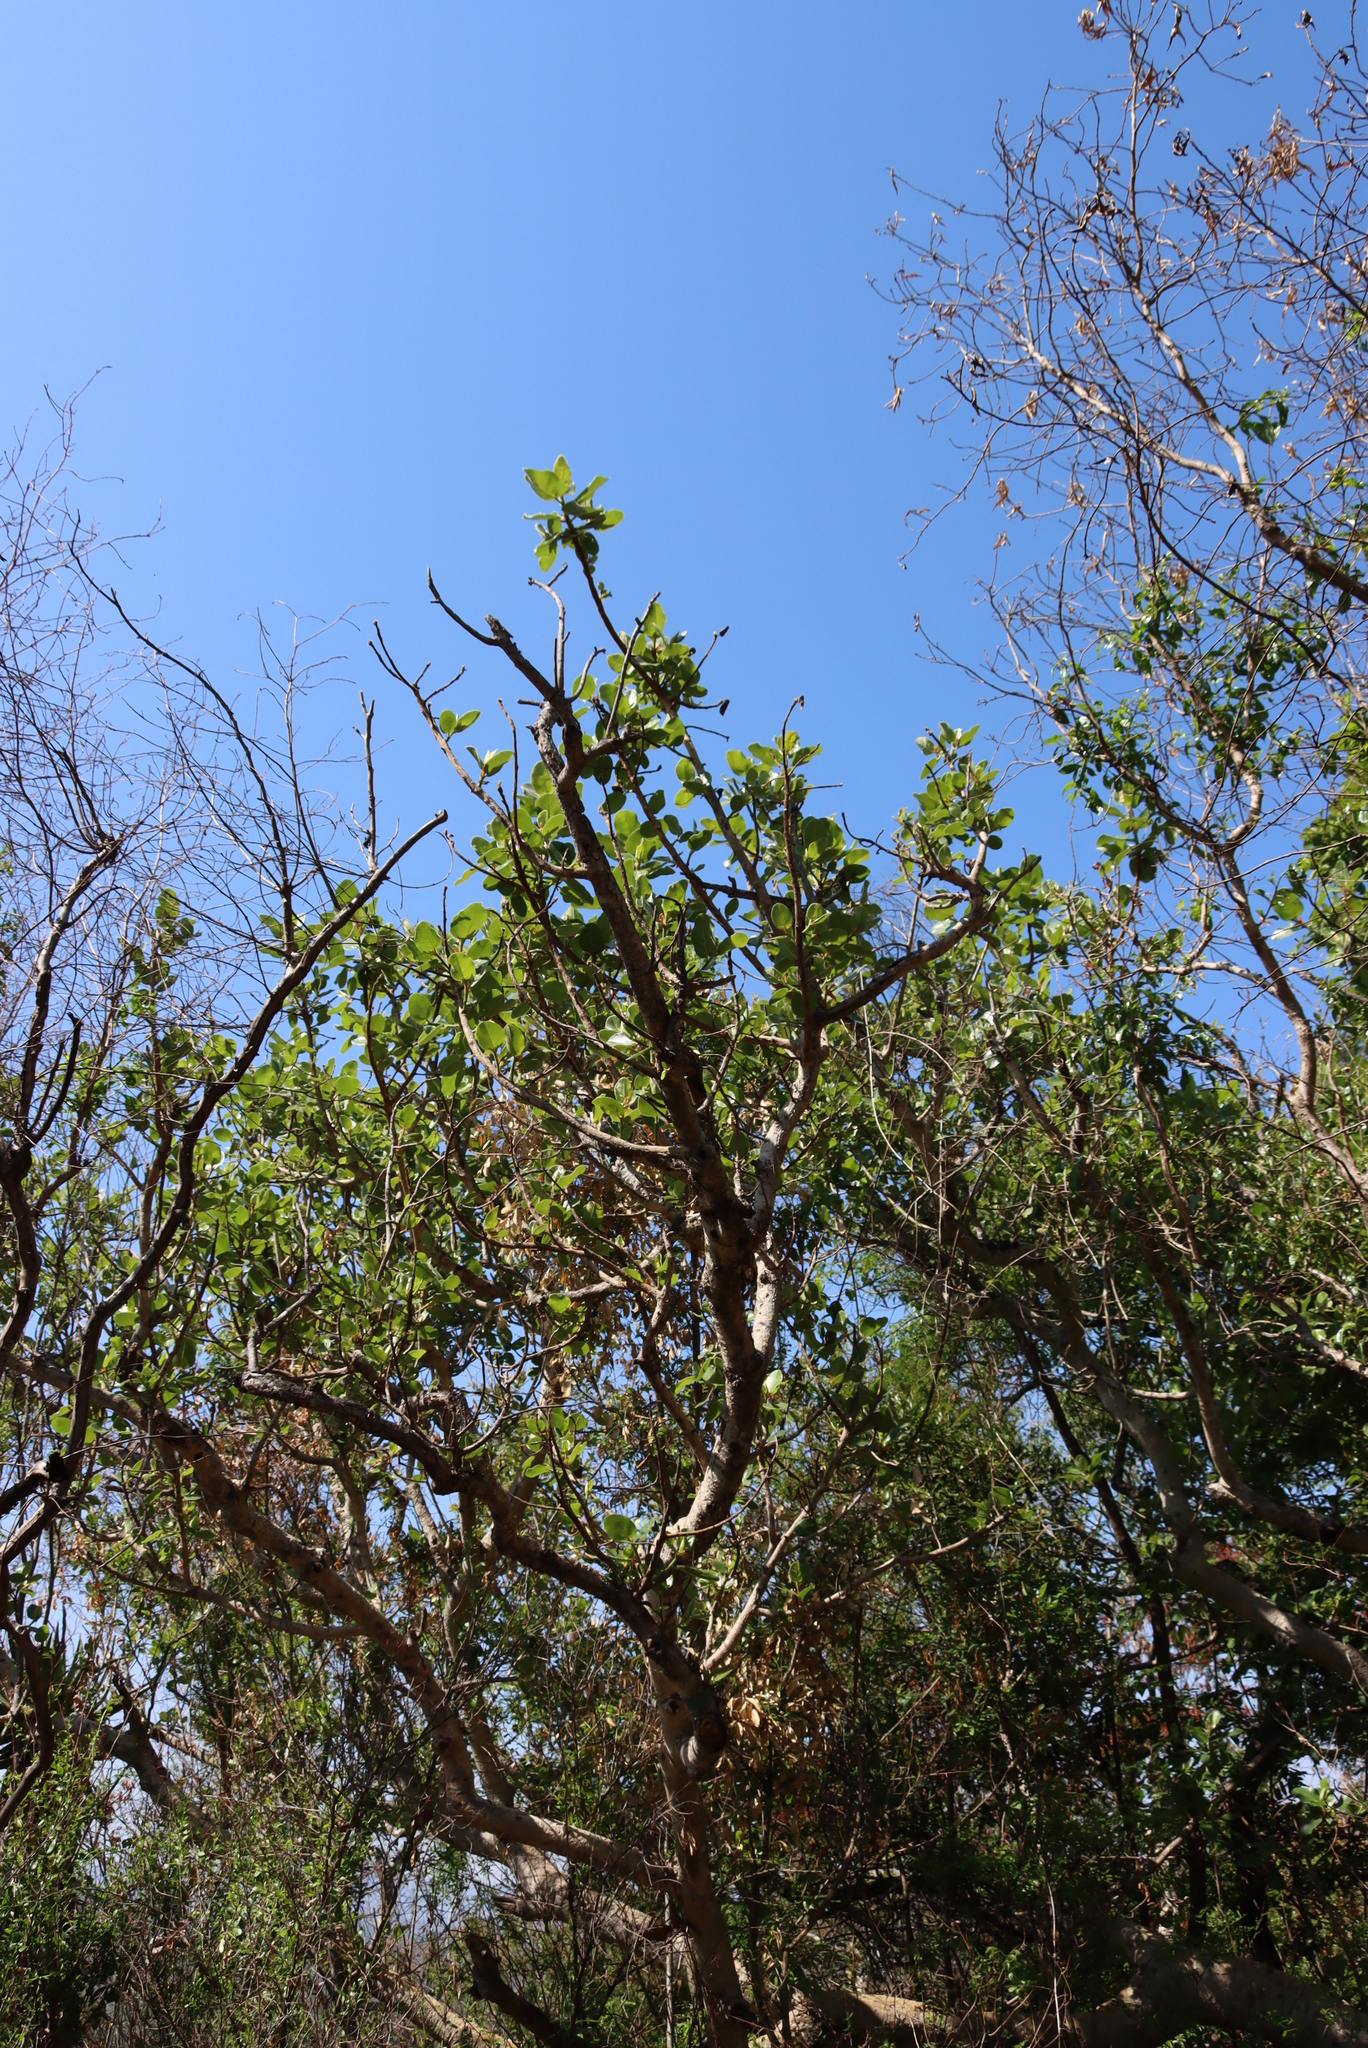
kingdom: Plantae
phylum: Tracheophyta
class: Magnoliopsida
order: Rosales
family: Moraceae
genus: Ficus
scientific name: Ficus glumosa
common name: Hairy rock fig
